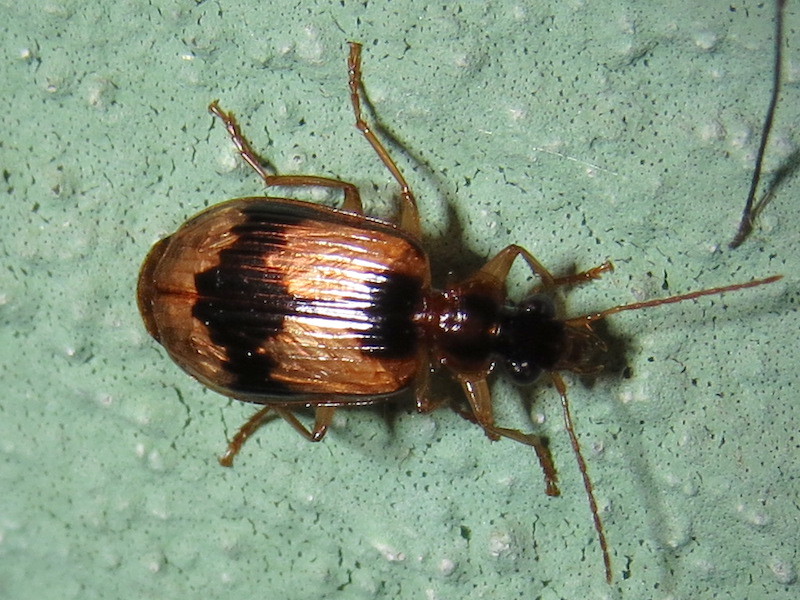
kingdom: Animalia
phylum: Arthropoda
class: Insecta
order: Coleoptera
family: Carabidae
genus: Lebia
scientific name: Lebia fuscata
